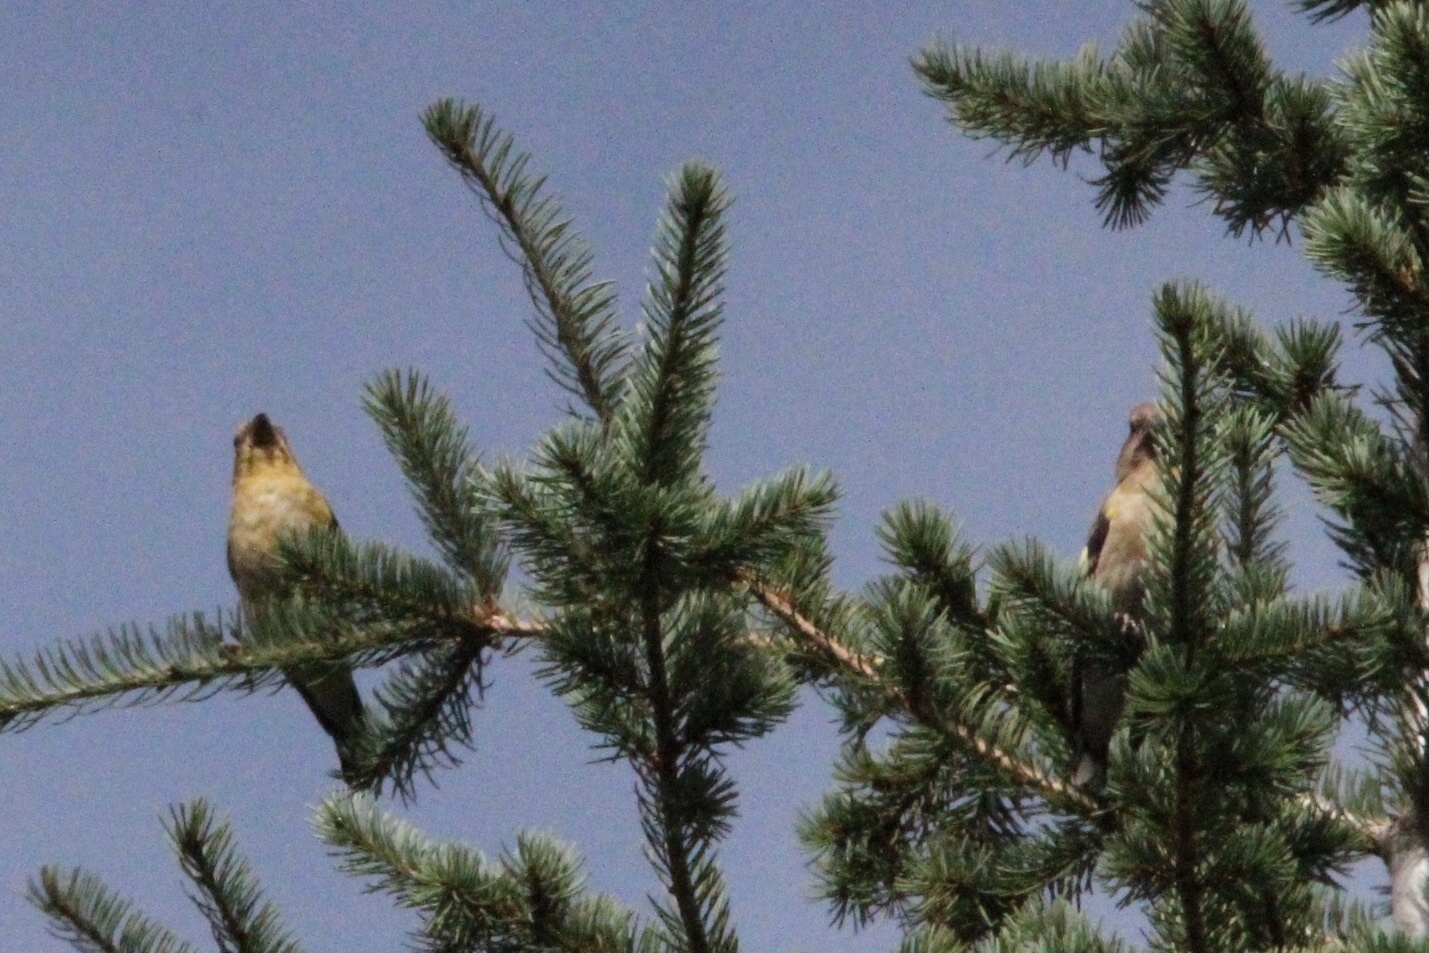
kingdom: Animalia
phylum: Chordata
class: Aves
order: Passeriformes
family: Fringillidae
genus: Hesperiphona
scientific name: Hesperiphona vespertina
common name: Evening grosbeak
